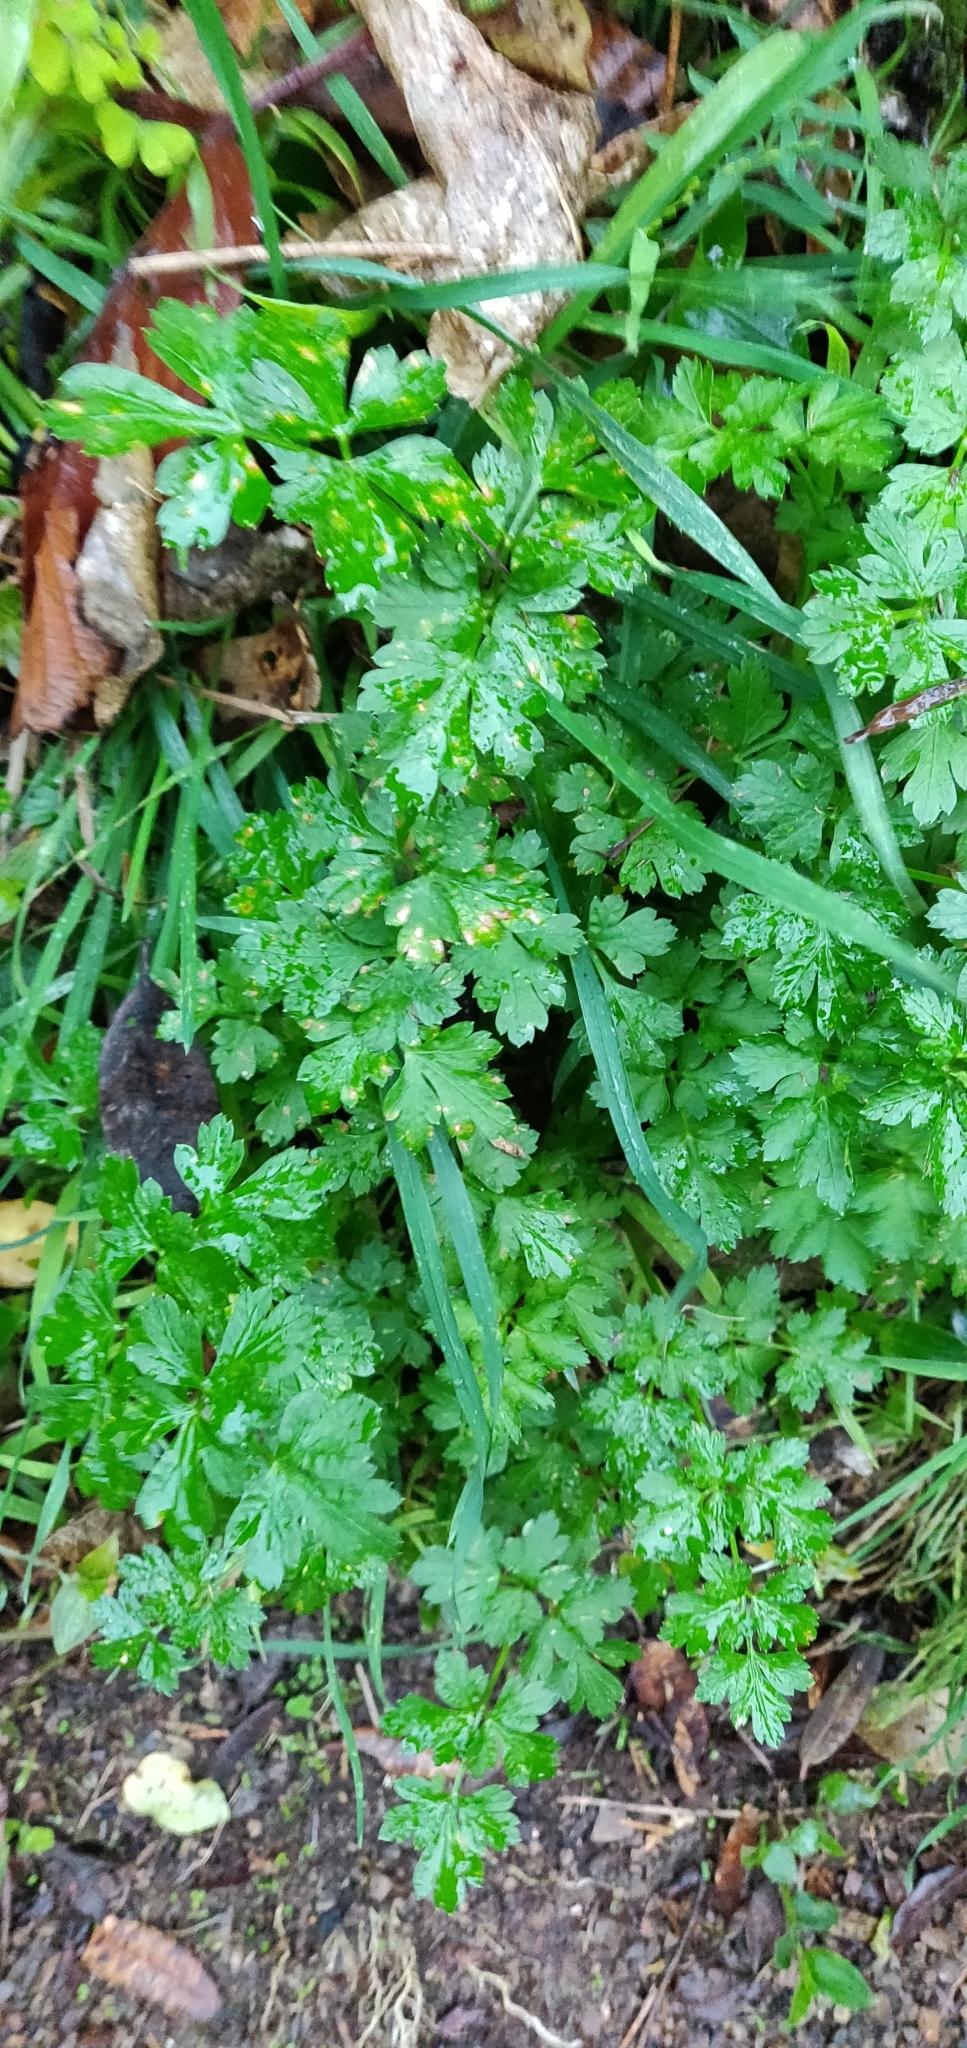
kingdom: Plantae
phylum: Tracheophyta
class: Magnoliopsida
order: Ranunculales
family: Ranunculaceae
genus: Ranunculus
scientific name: Ranunculus repens
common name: Creeping buttercup
